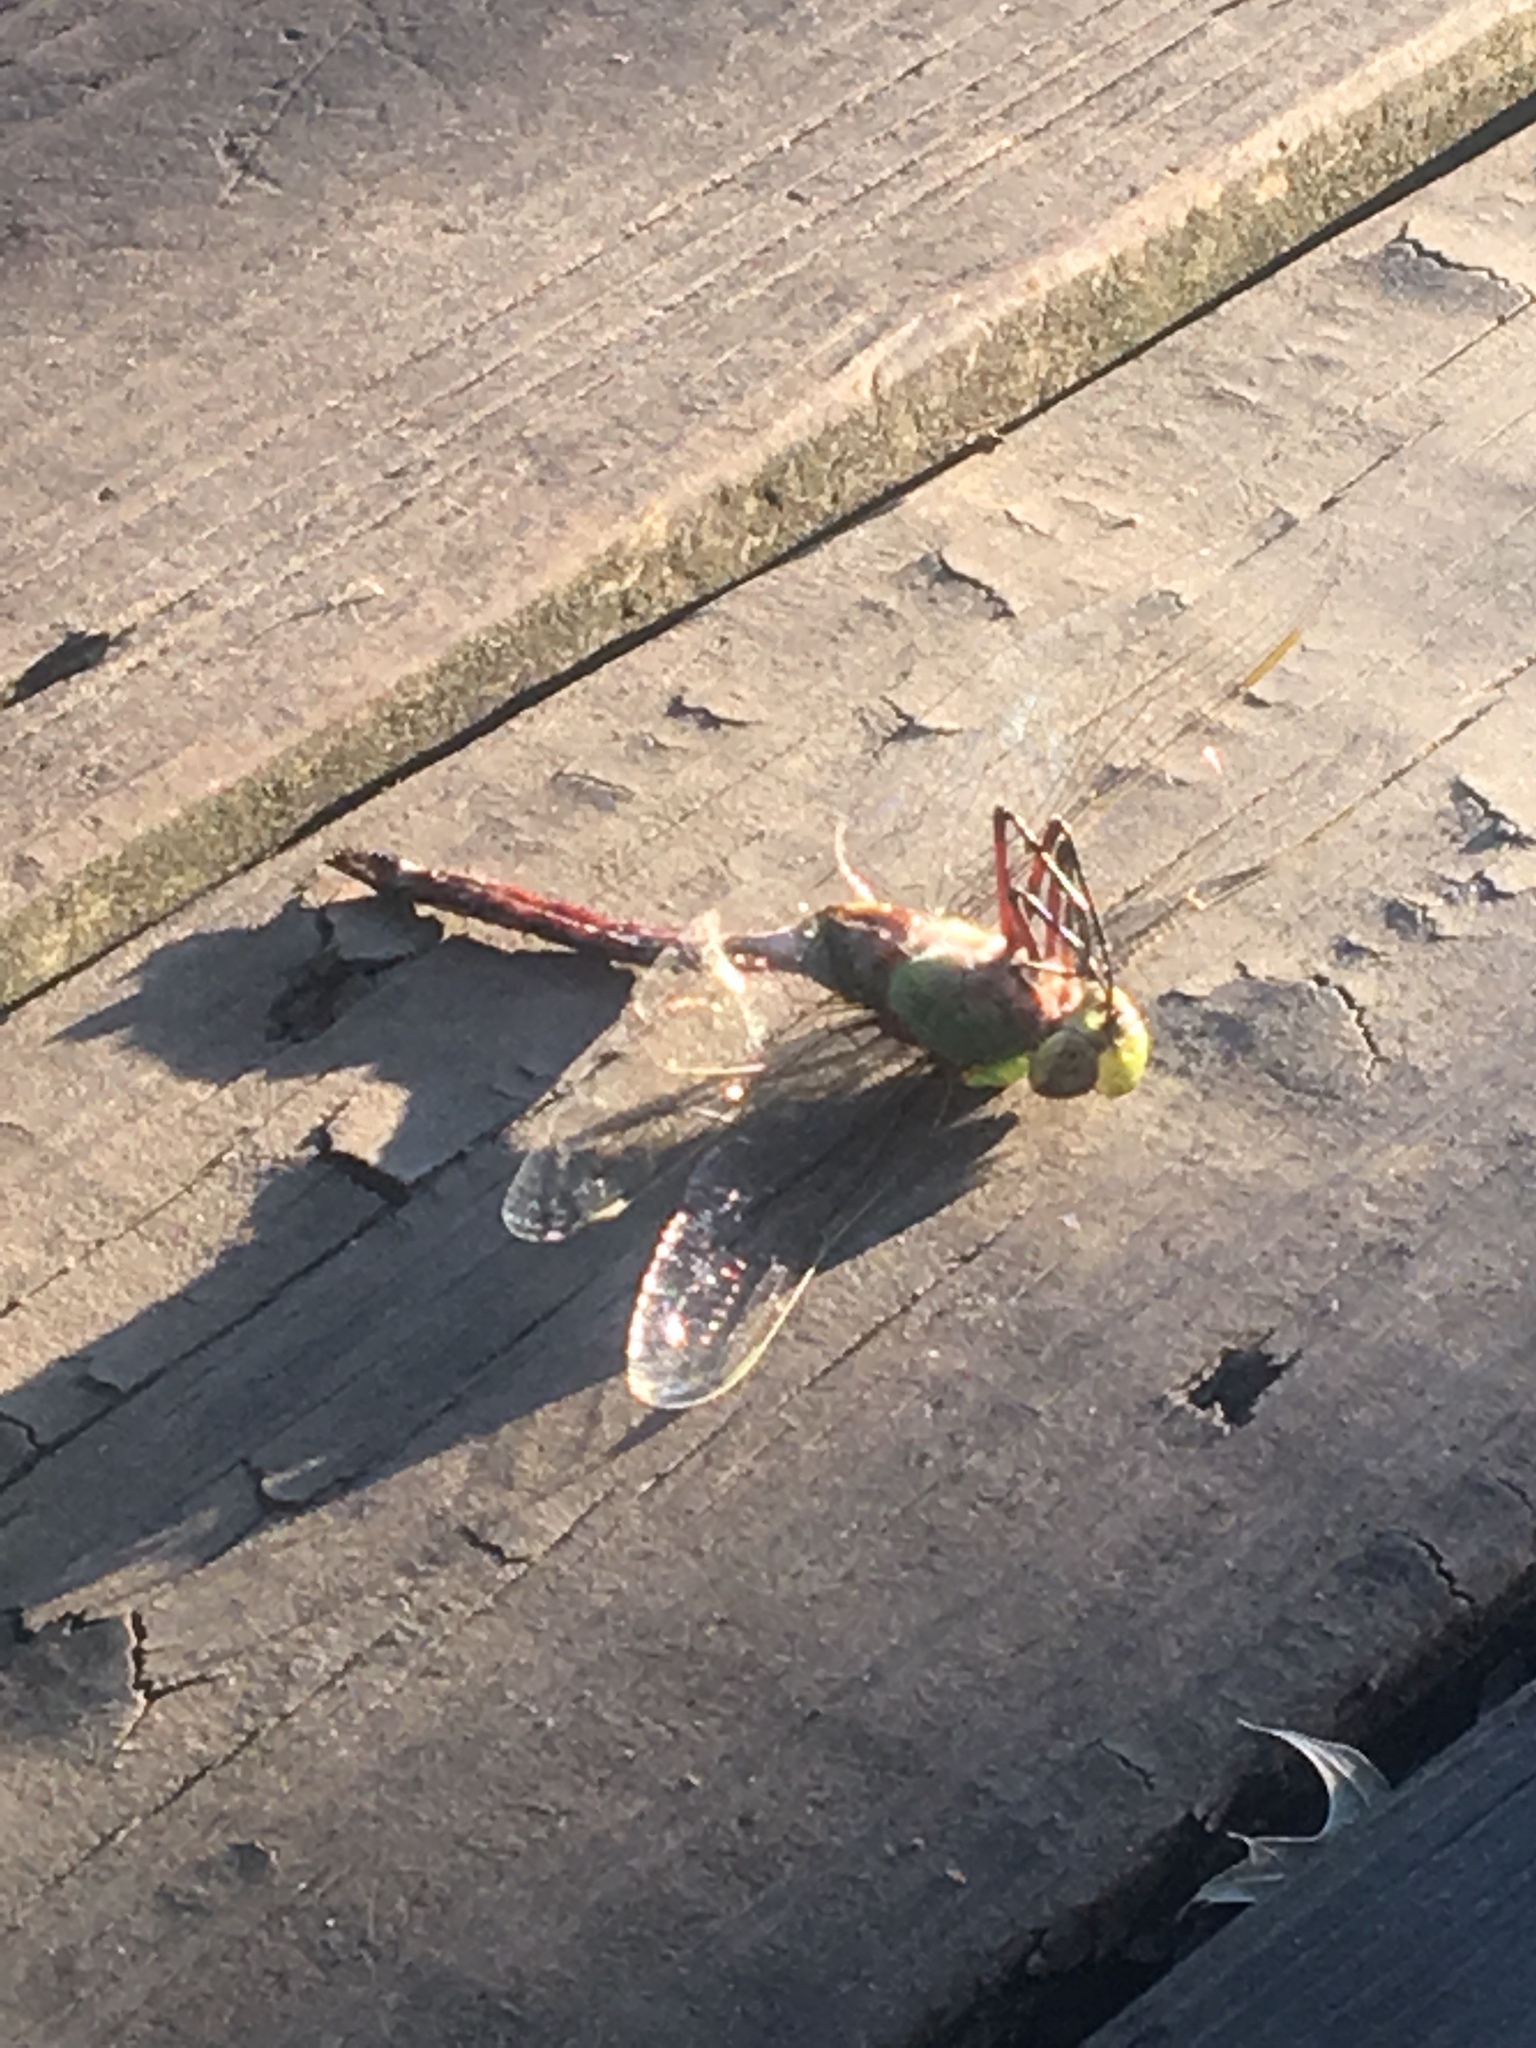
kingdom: Animalia
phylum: Arthropoda
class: Insecta
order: Odonata
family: Aeshnidae
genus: Anax
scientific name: Anax junius
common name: Common green darner
